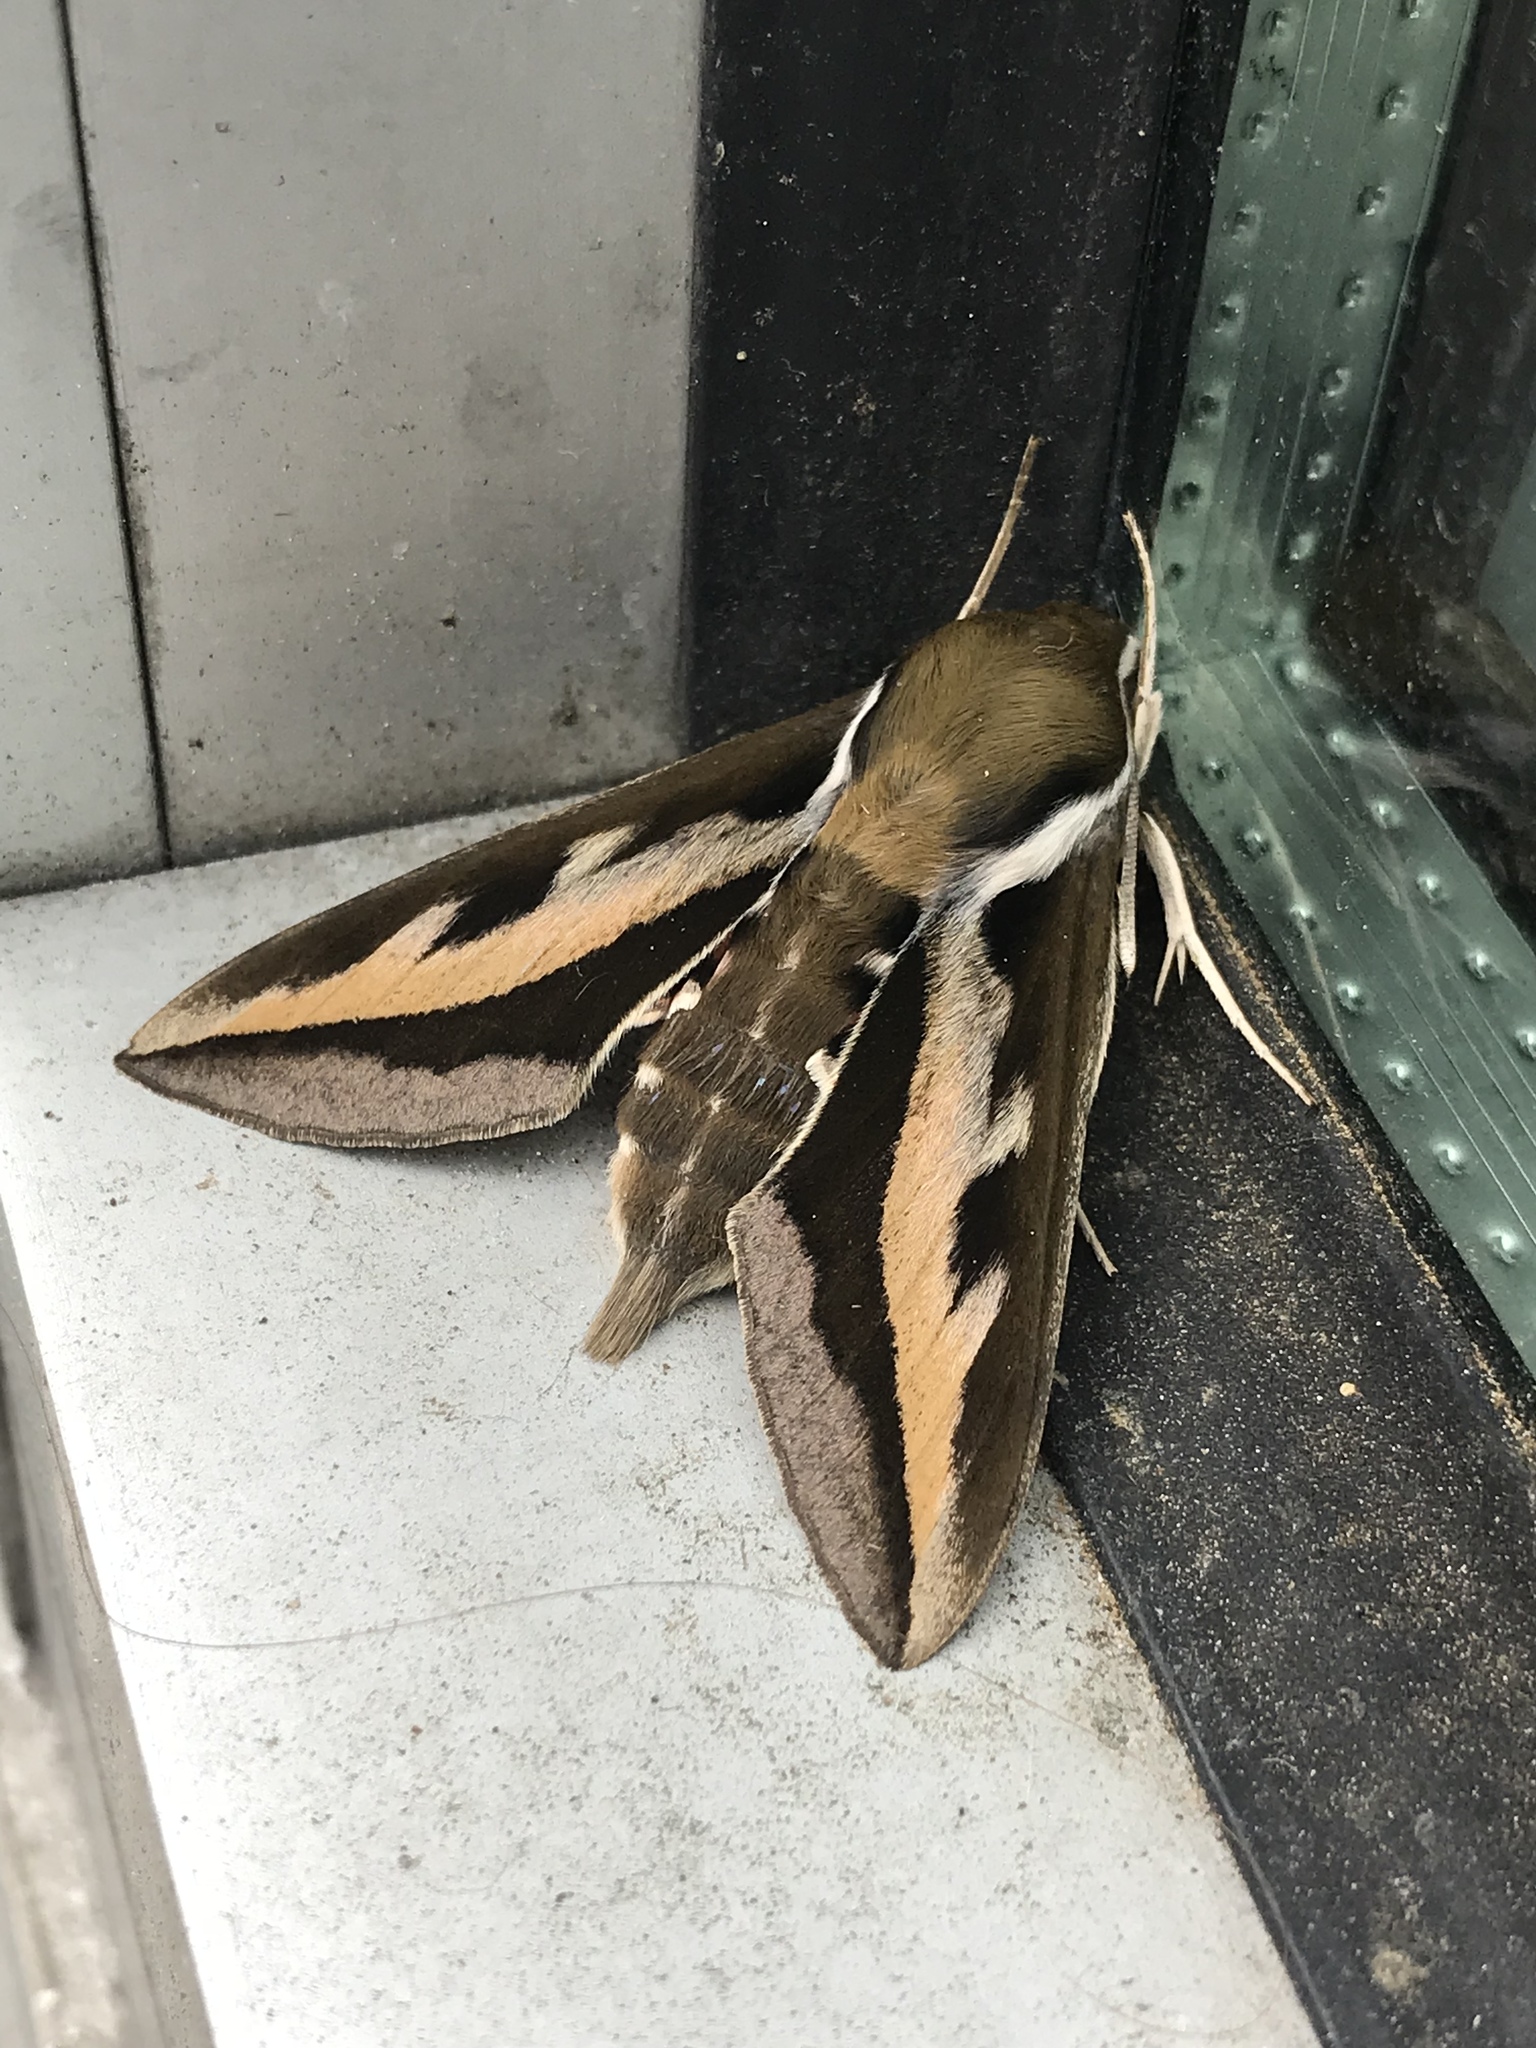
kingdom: Animalia
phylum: Arthropoda
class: Insecta
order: Lepidoptera
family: Sphingidae
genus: Hyles
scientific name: Hyles gallii
